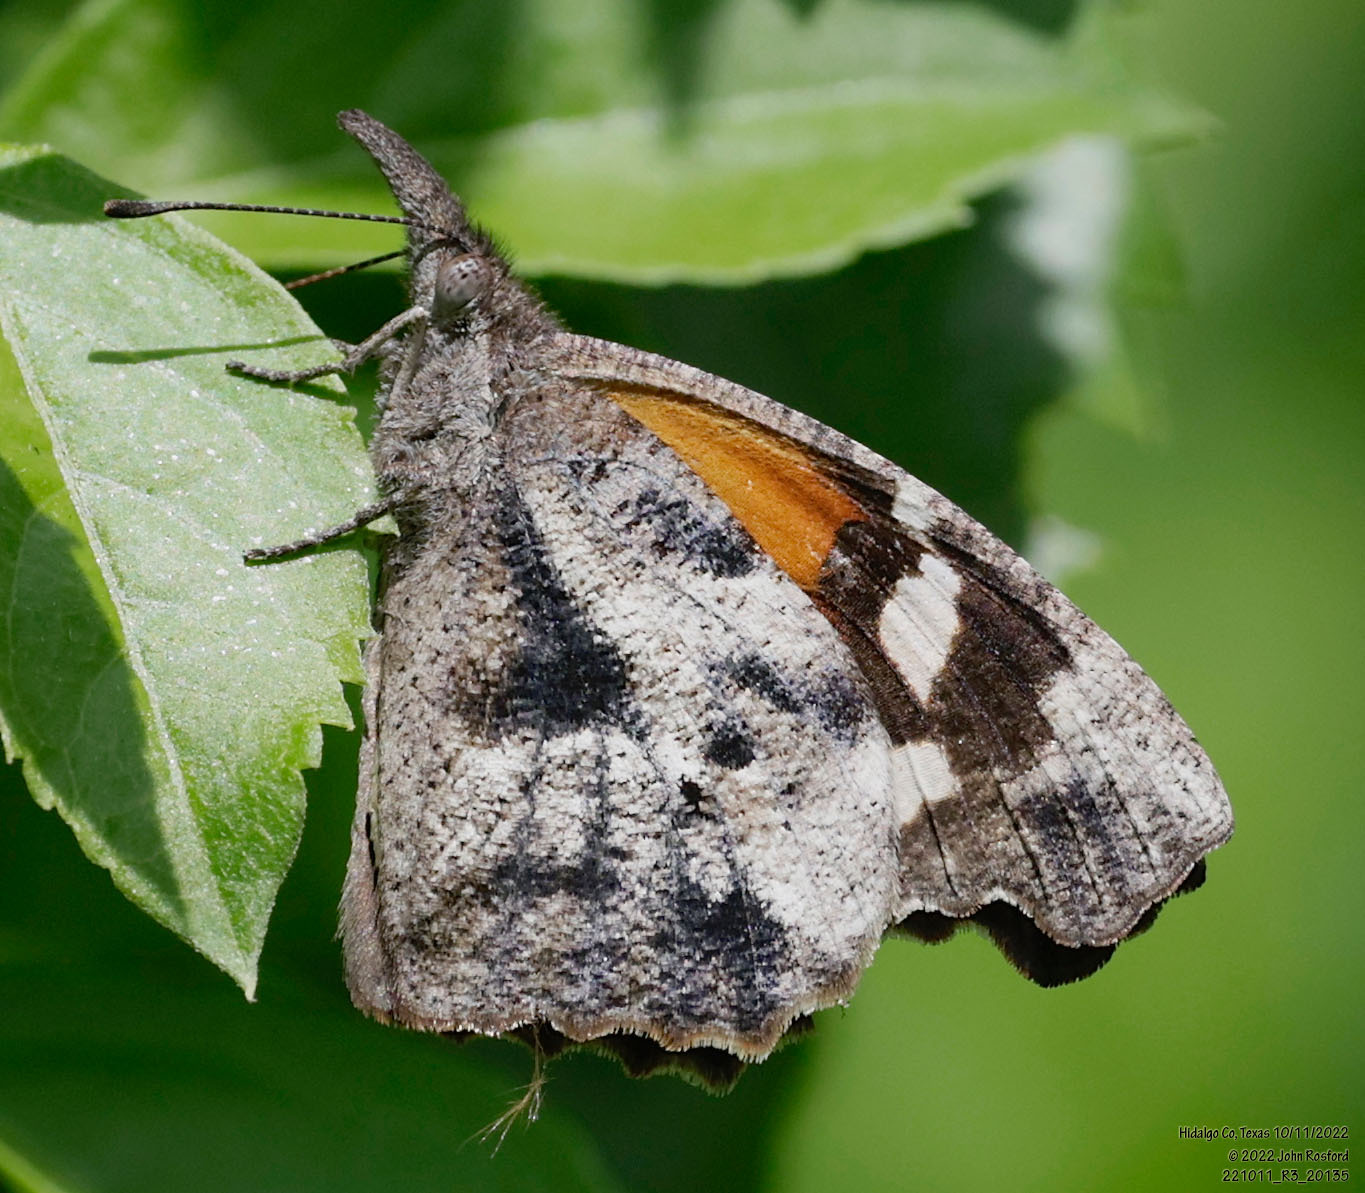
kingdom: Animalia
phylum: Arthropoda
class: Insecta
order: Lepidoptera
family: Nymphalidae
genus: Libytheana
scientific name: Libytheana carinenta
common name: American snout
